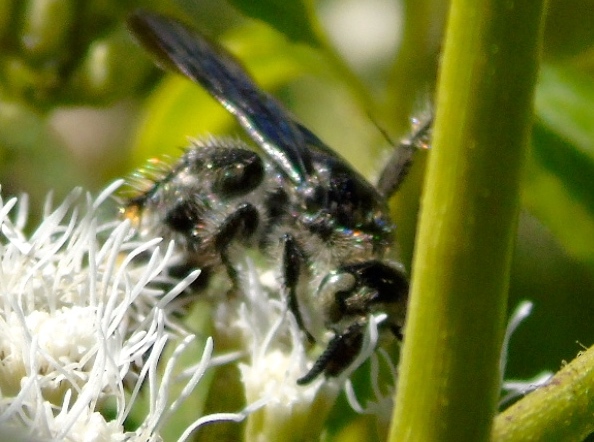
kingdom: Animalia
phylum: Arthropoda
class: Insecta
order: Hymenoptera
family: Scoliidae
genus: Dielis
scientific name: Dielis tolteca
